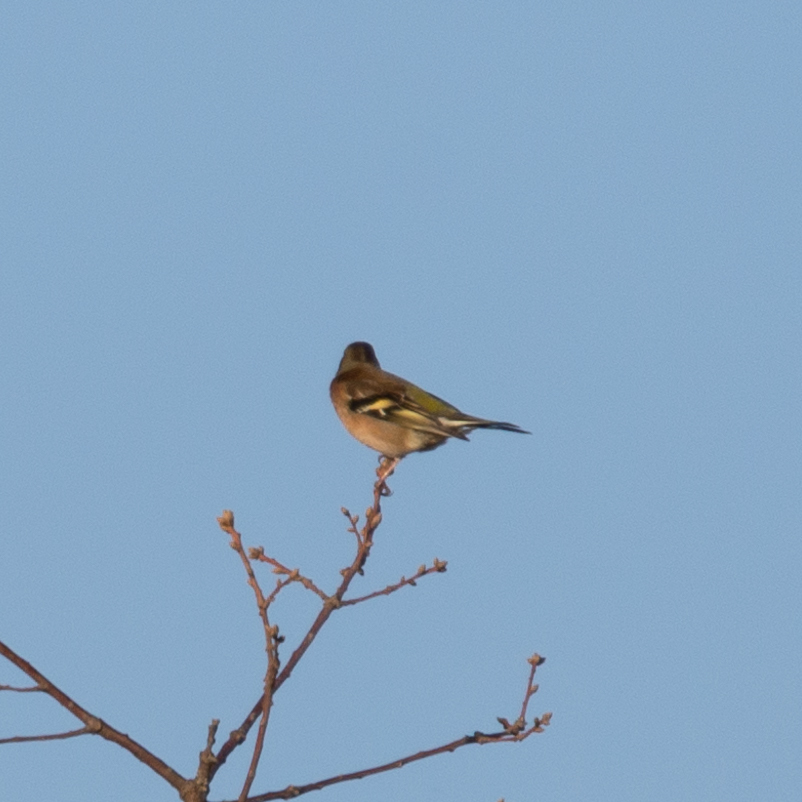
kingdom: Animalia
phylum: Chordata
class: Aves
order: Passeriformes
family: Fringillidae
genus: Fringilla
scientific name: Fringilla coelebs
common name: Common chaffinch
